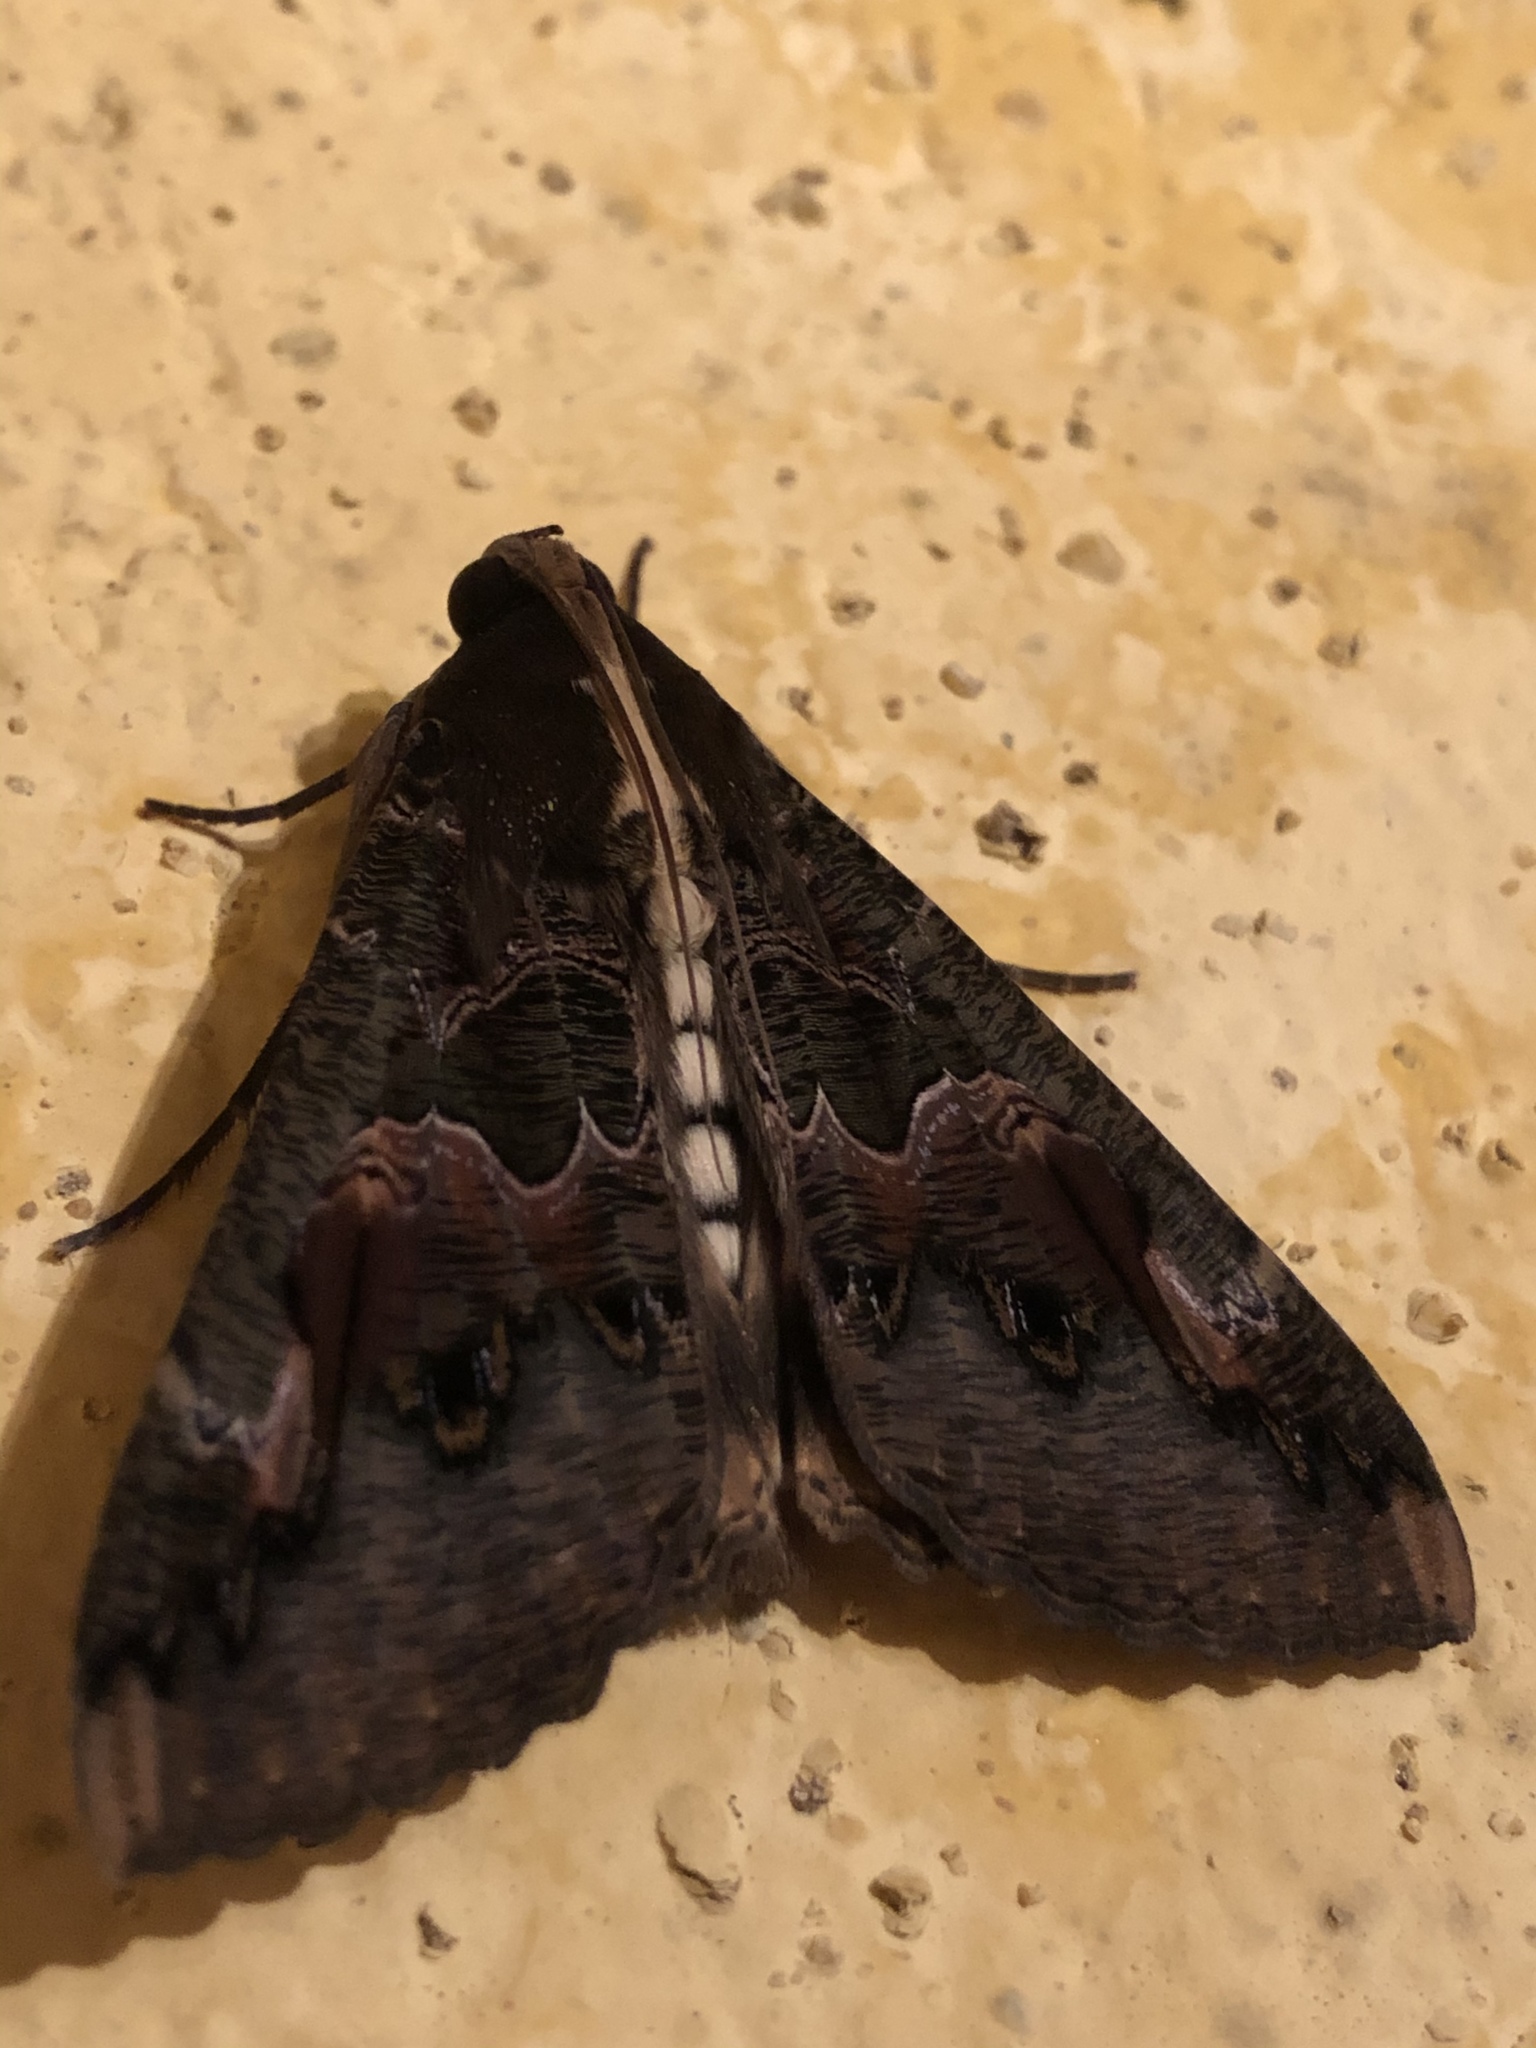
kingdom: Animalia
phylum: Arthropoda
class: Insecta
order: Lepidoptera
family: Erebidae
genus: Sphingomorpha
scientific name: Sphingomorpha chlorea
